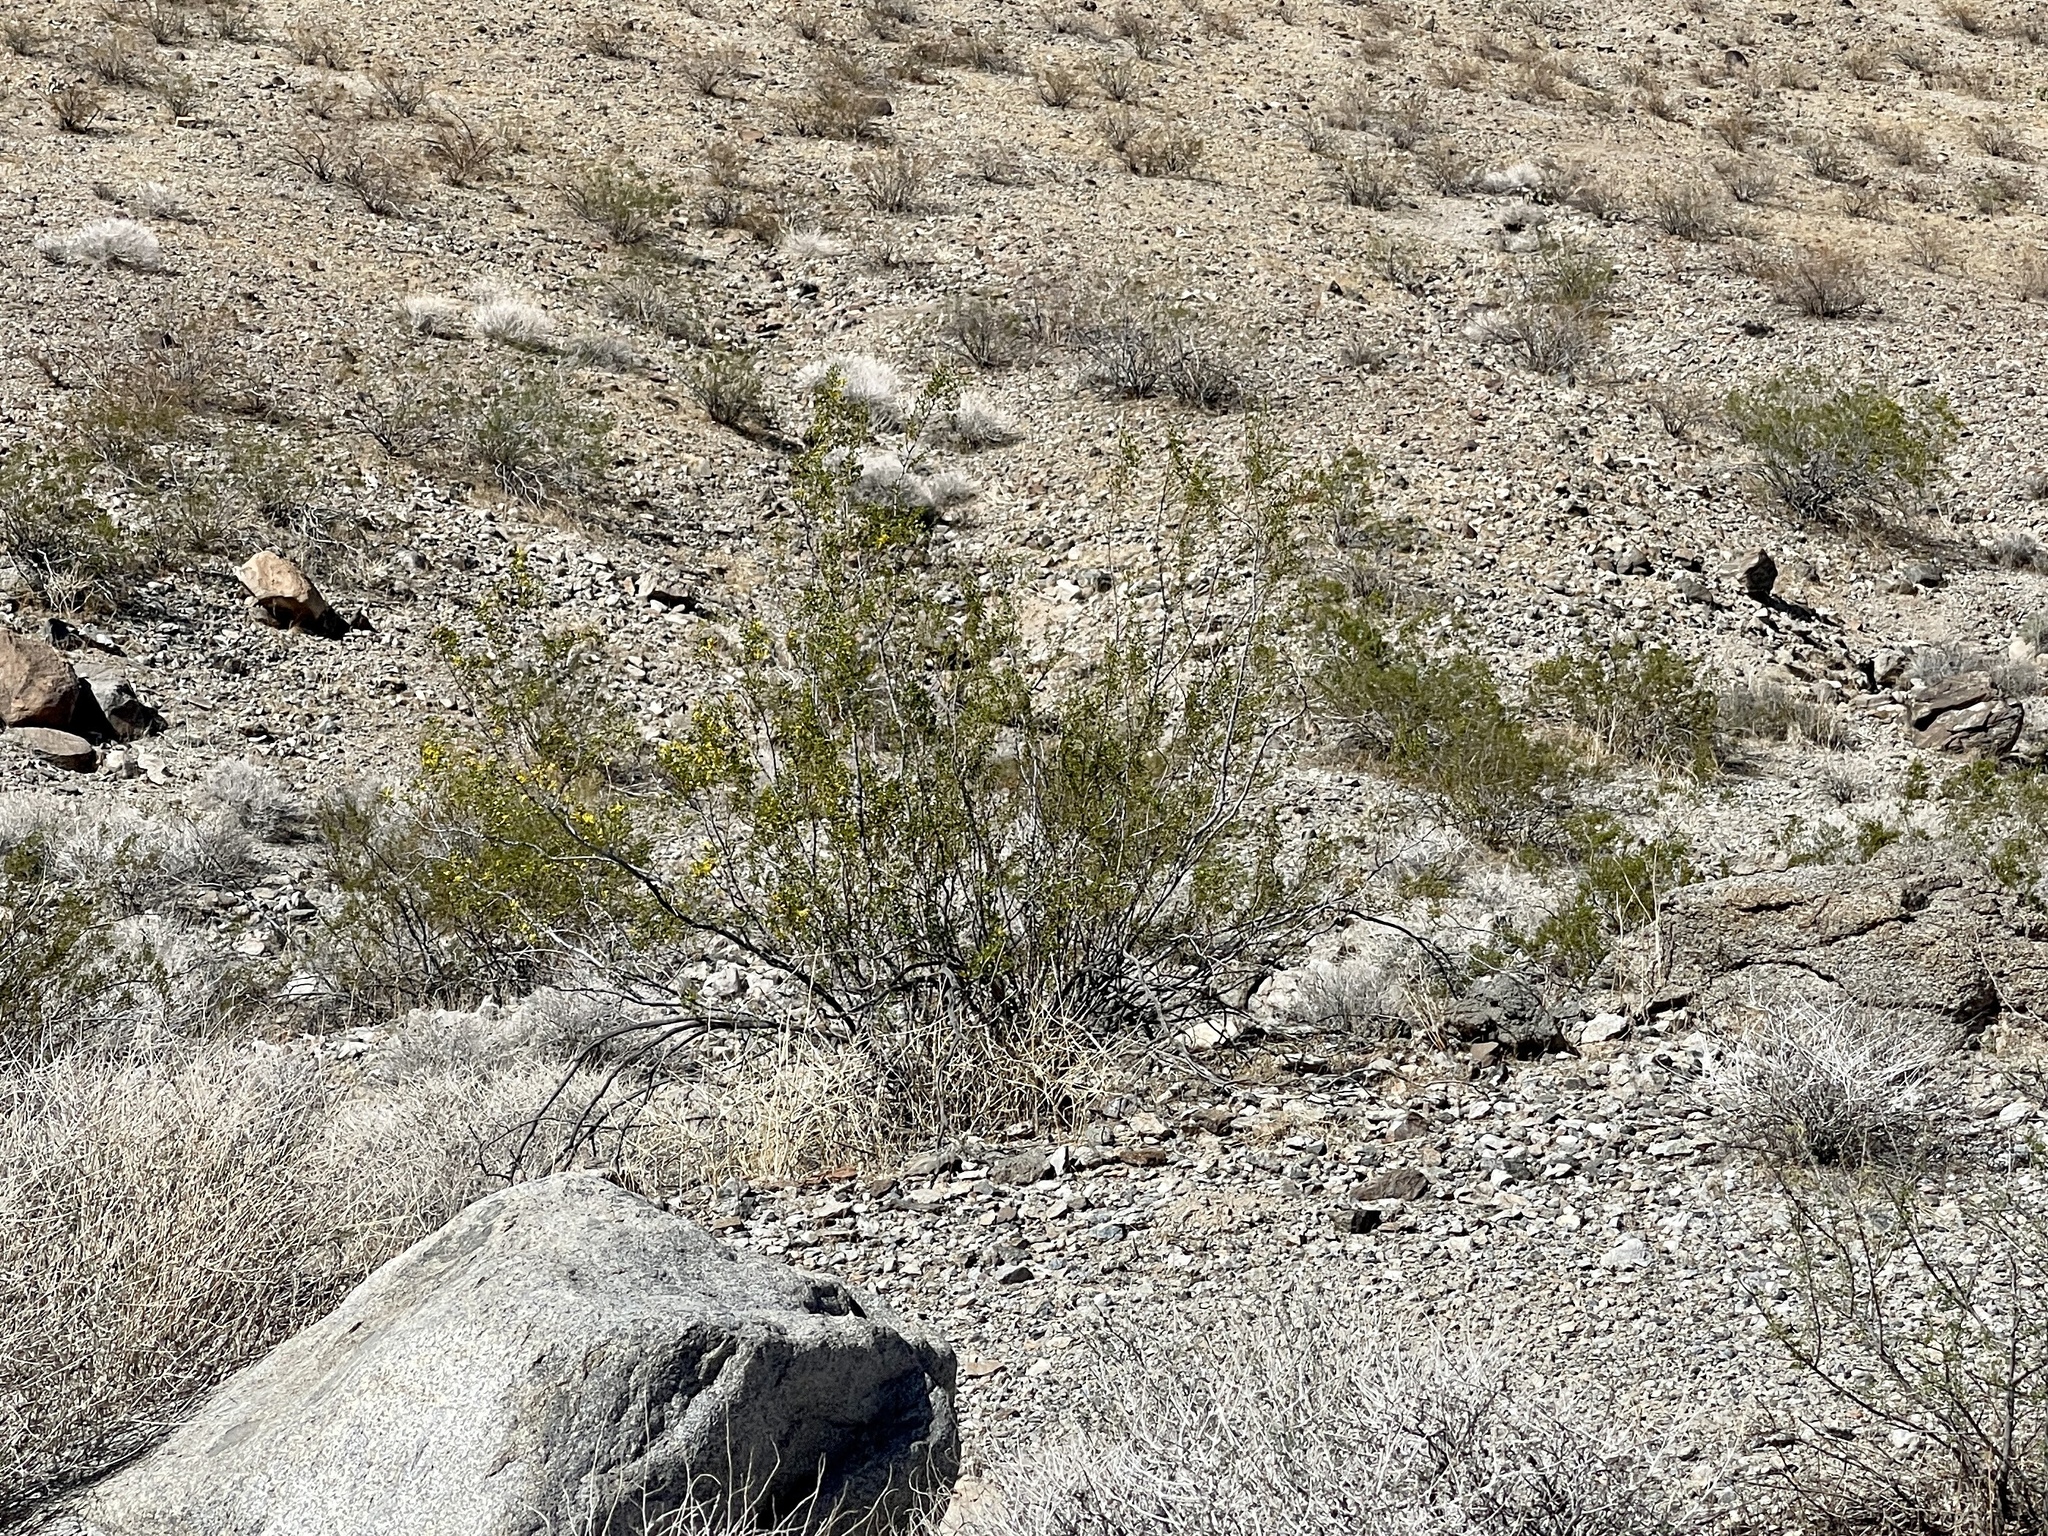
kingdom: Plantae
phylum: Tracheophyta
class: Magnoliopsida
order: Zygophyllales
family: Zygophyllaceae
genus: Larrea
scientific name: Larrea tridentata
